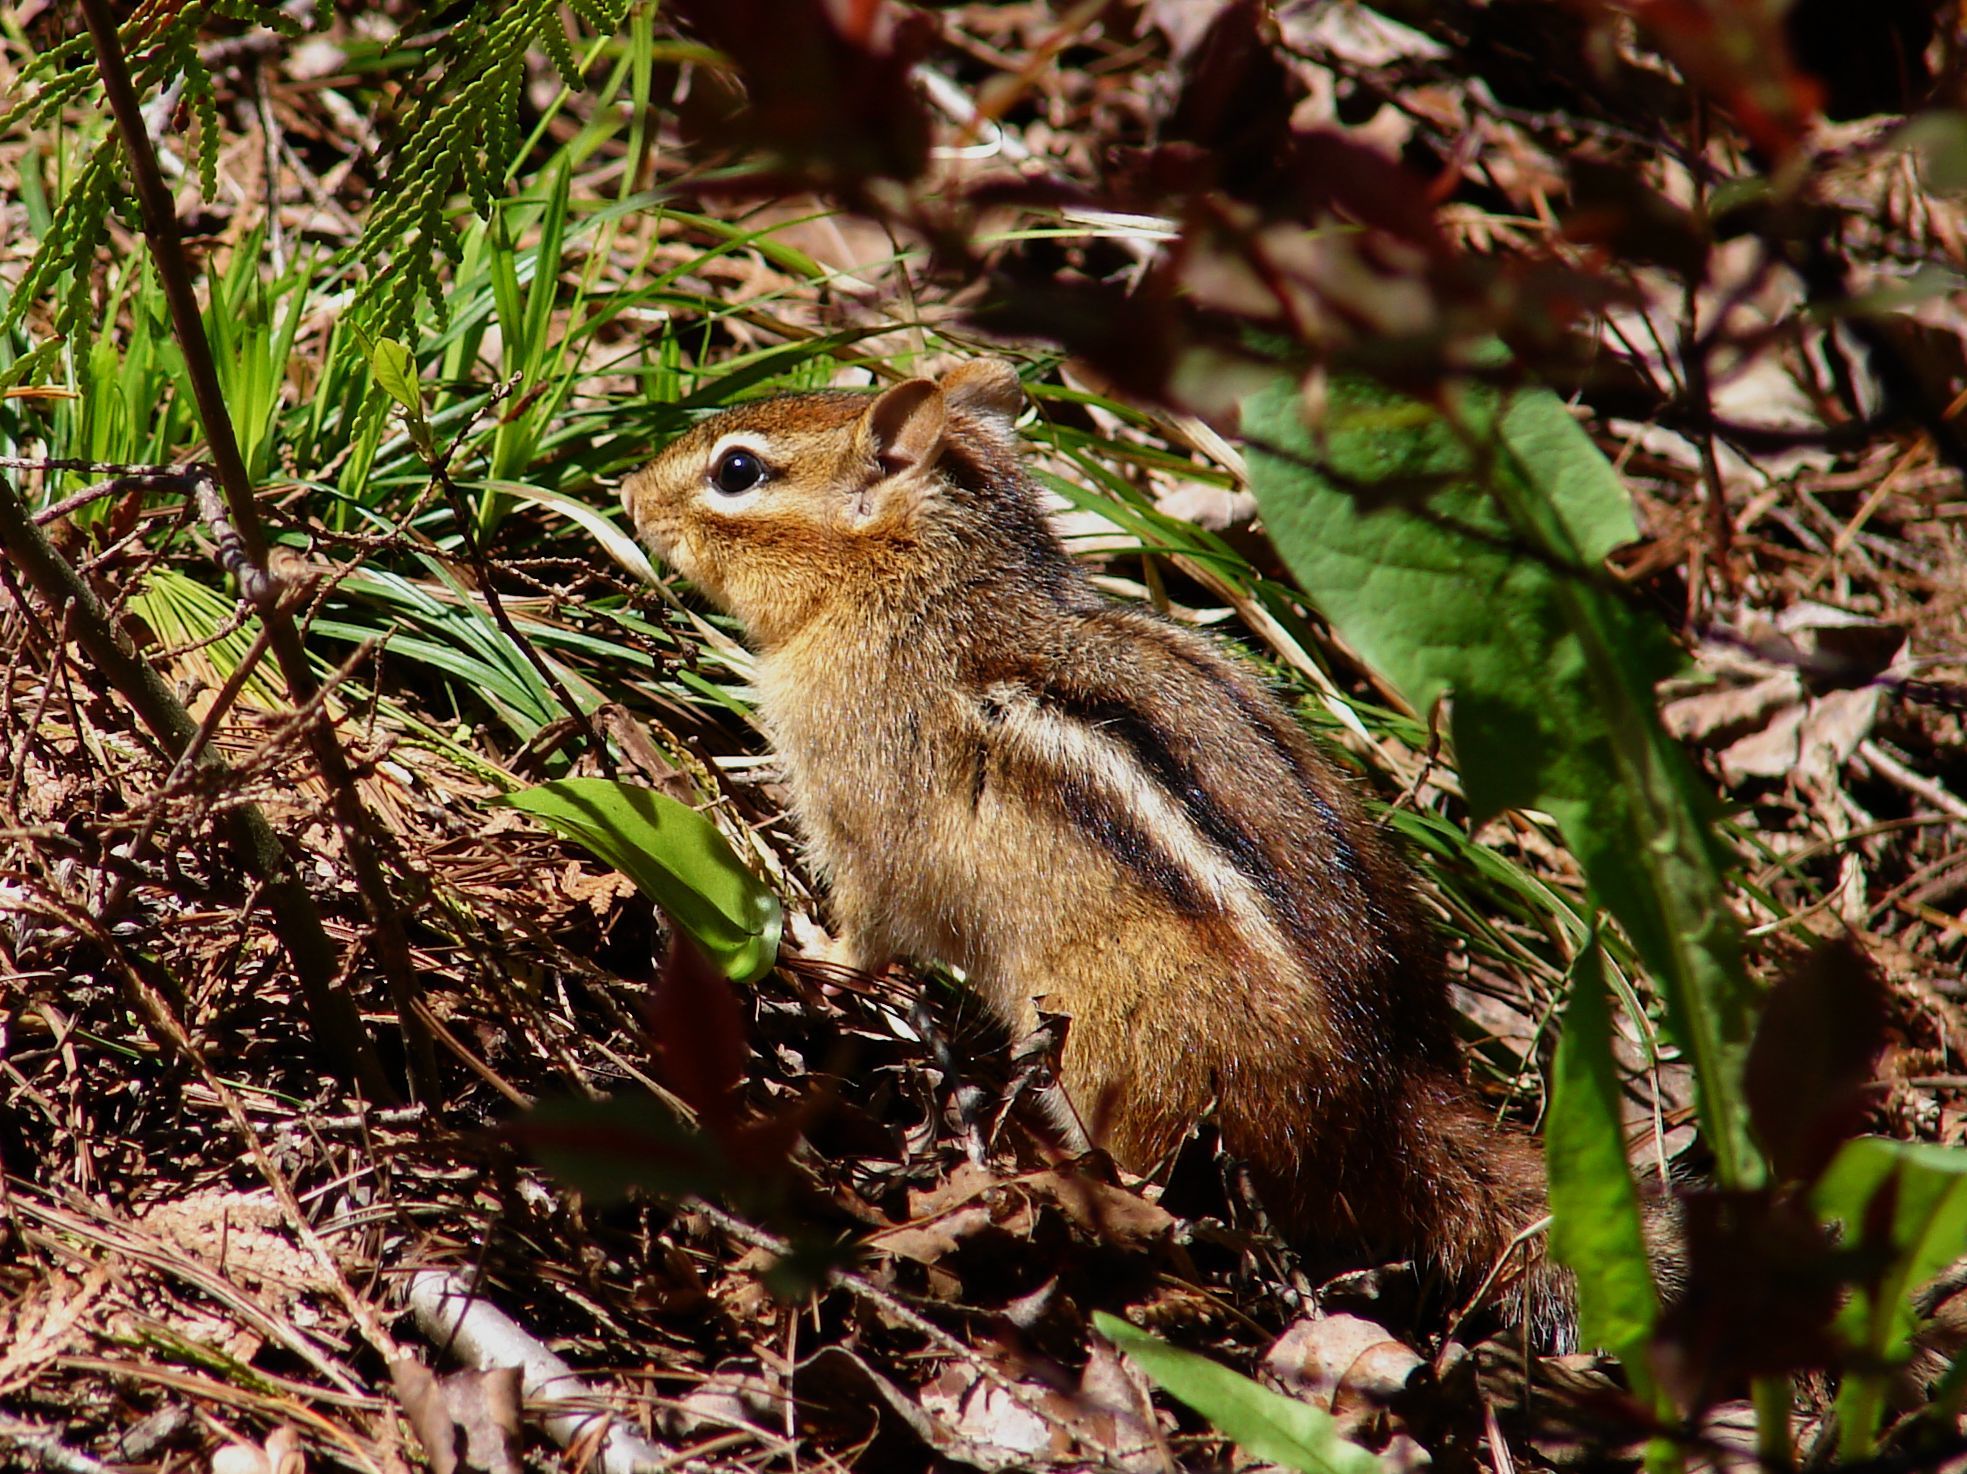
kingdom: Animalia
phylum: Chordata
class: Mammalia
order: Rodentia
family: Sciuridae
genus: Tamias
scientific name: Tamias striatus
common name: Eastern chipmunk
